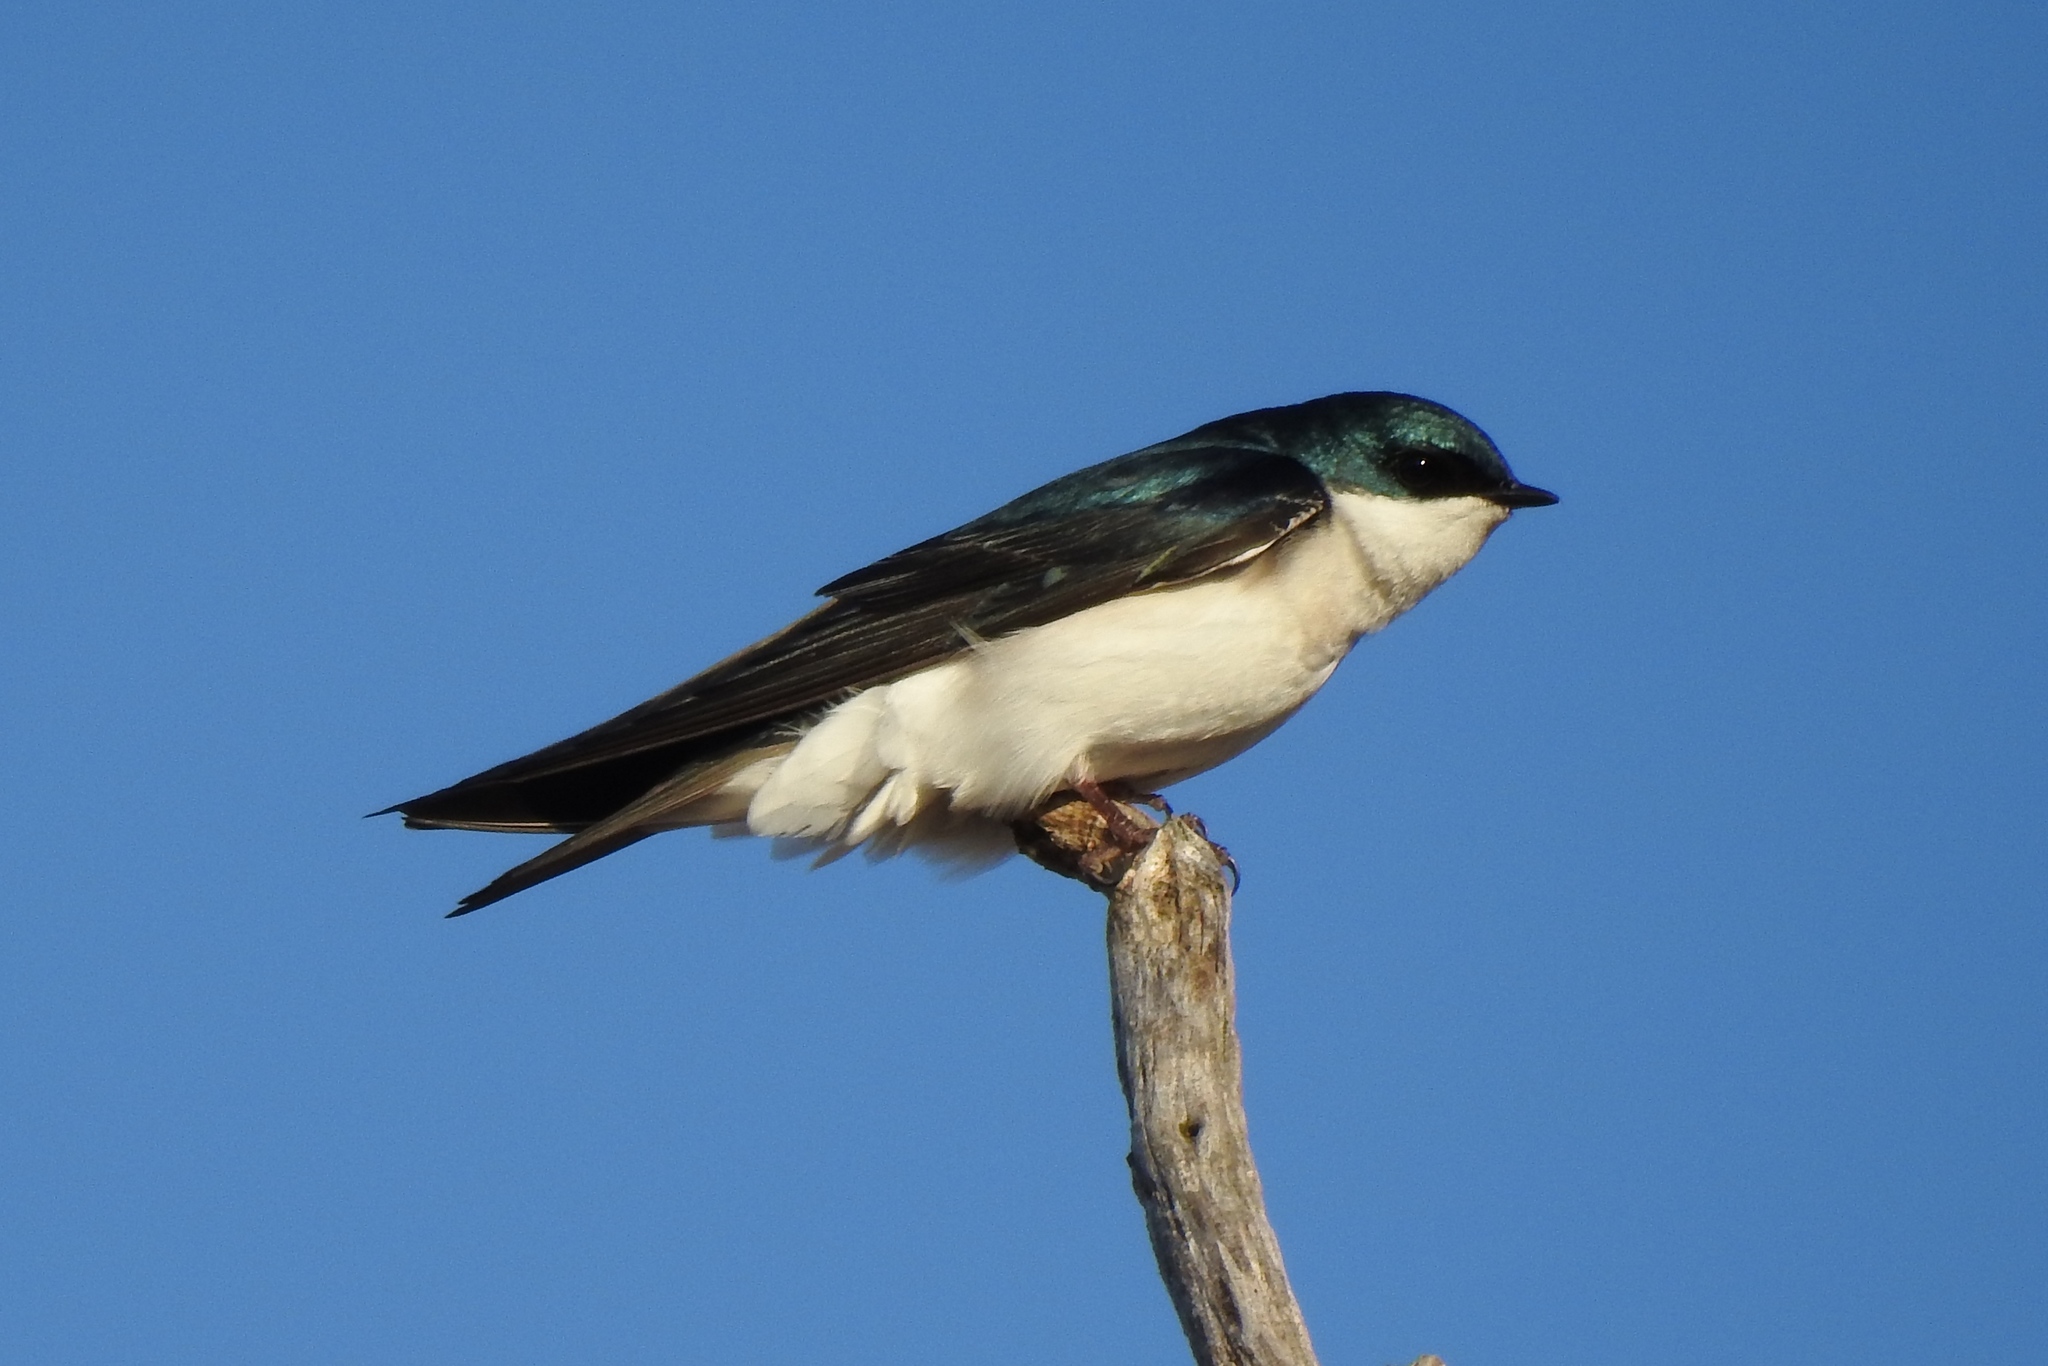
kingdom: Animalia
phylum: Chordata
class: Aves
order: Passeriformes
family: Hirundinidae
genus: Tachycineta
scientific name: Tachycineta bicolor
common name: Tree swallow
